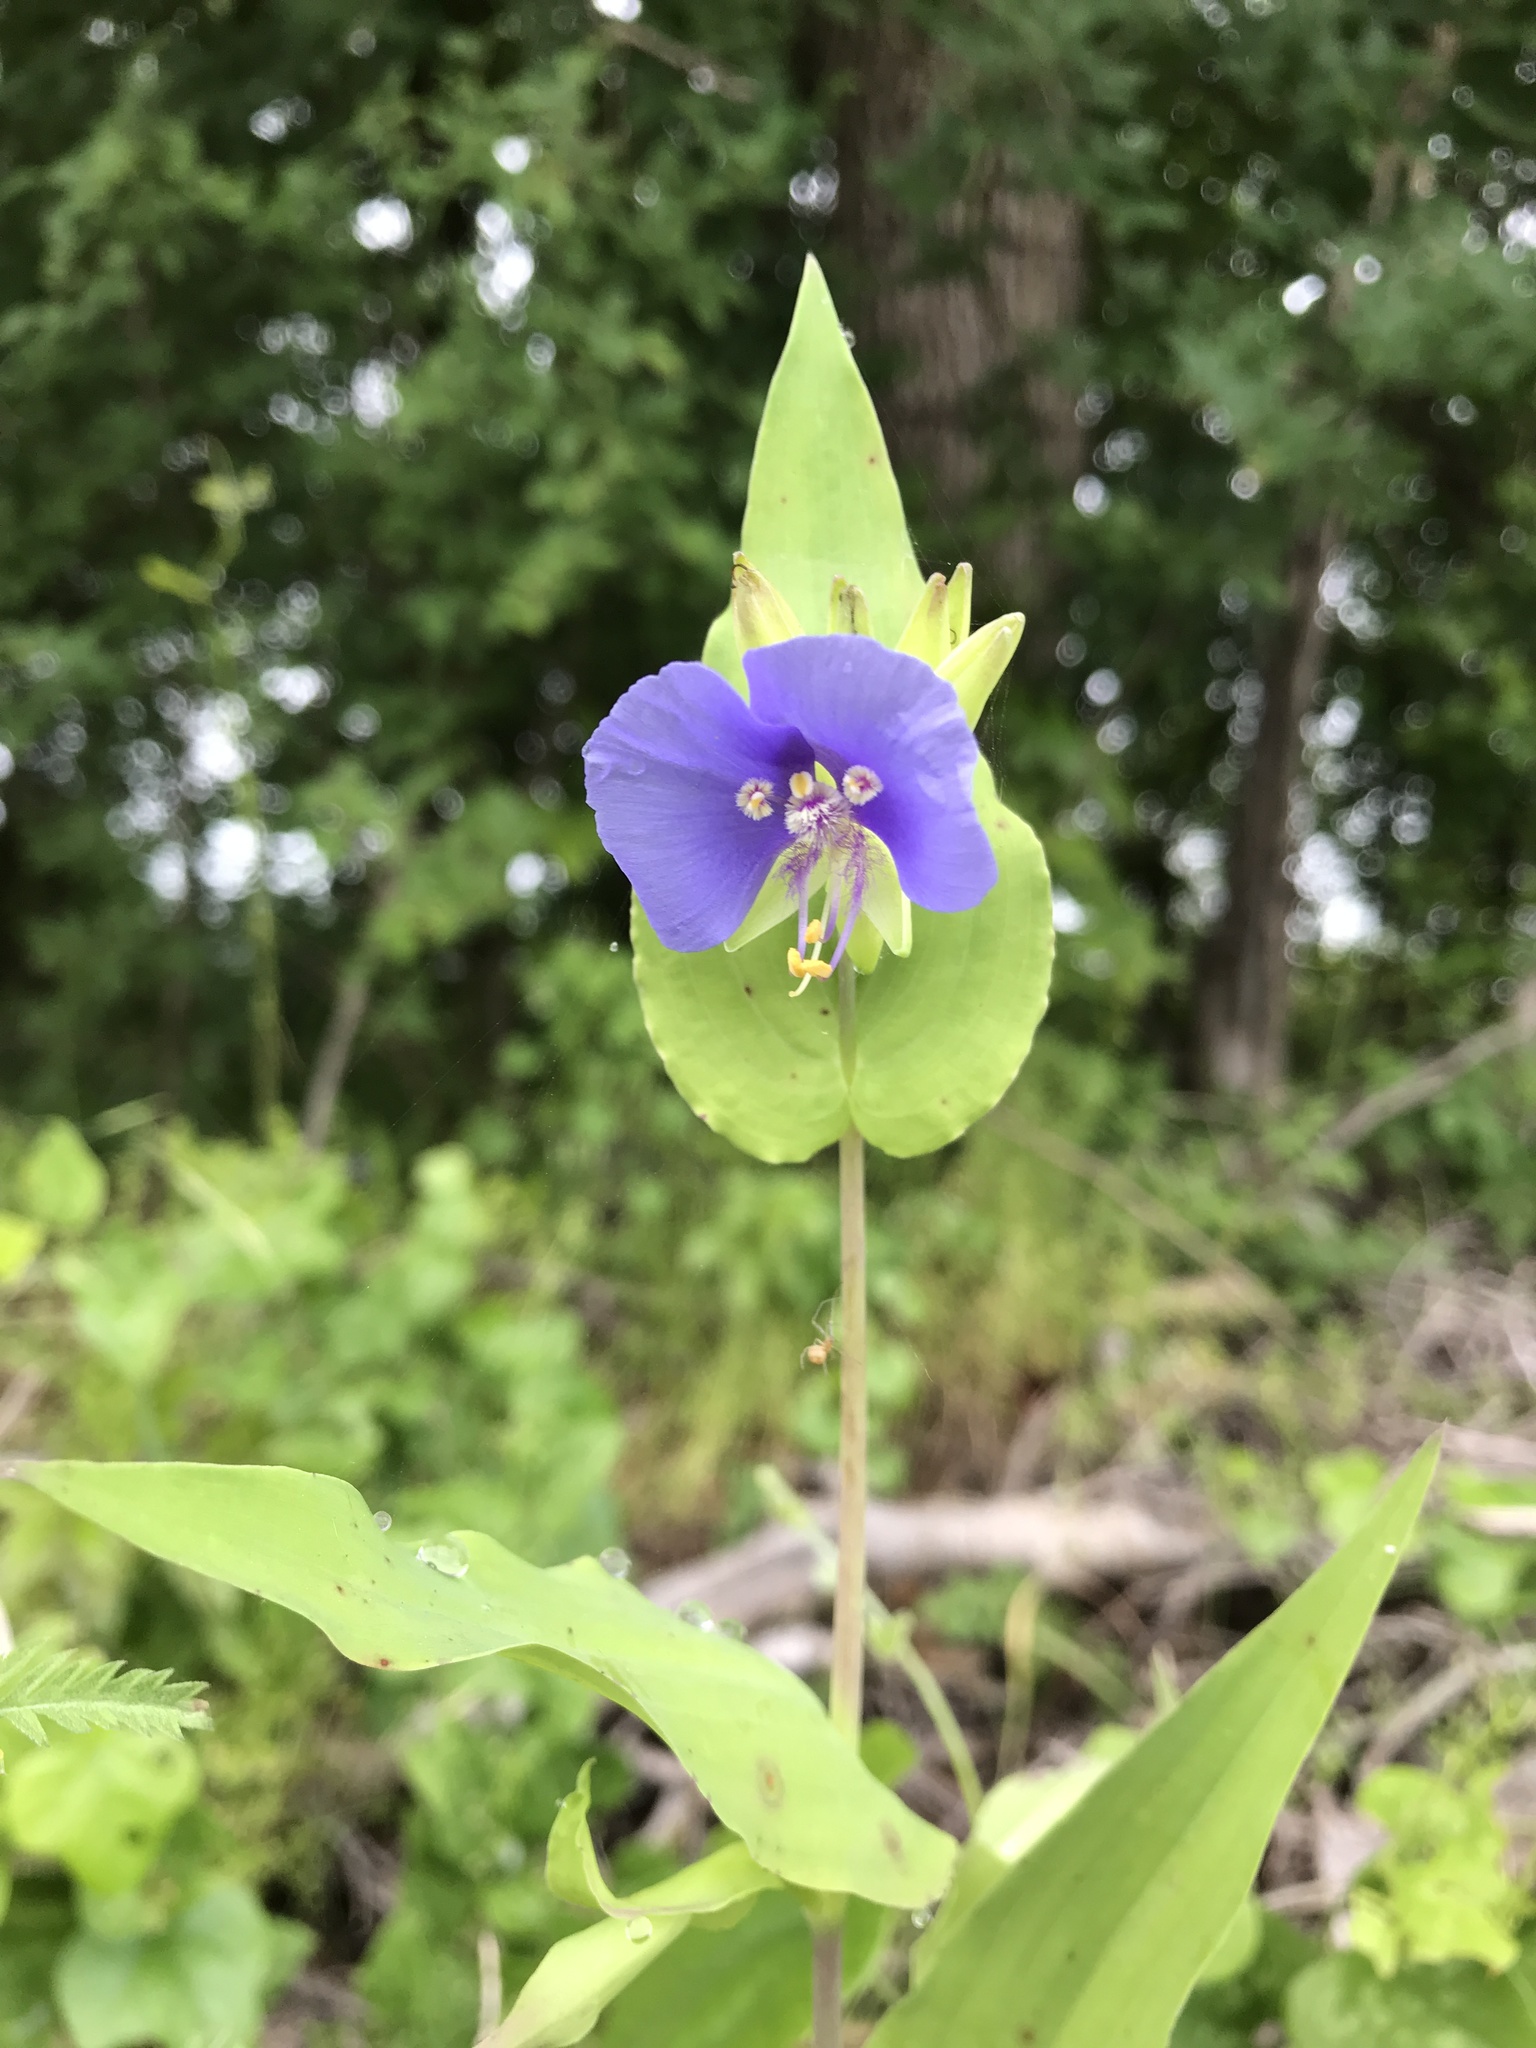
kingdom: Plantae
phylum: Tracheophyta
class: Liliopsida
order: Commelinales
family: Commelinaceae
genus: Tinantia
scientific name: Tinantia anomala
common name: False dayflower
